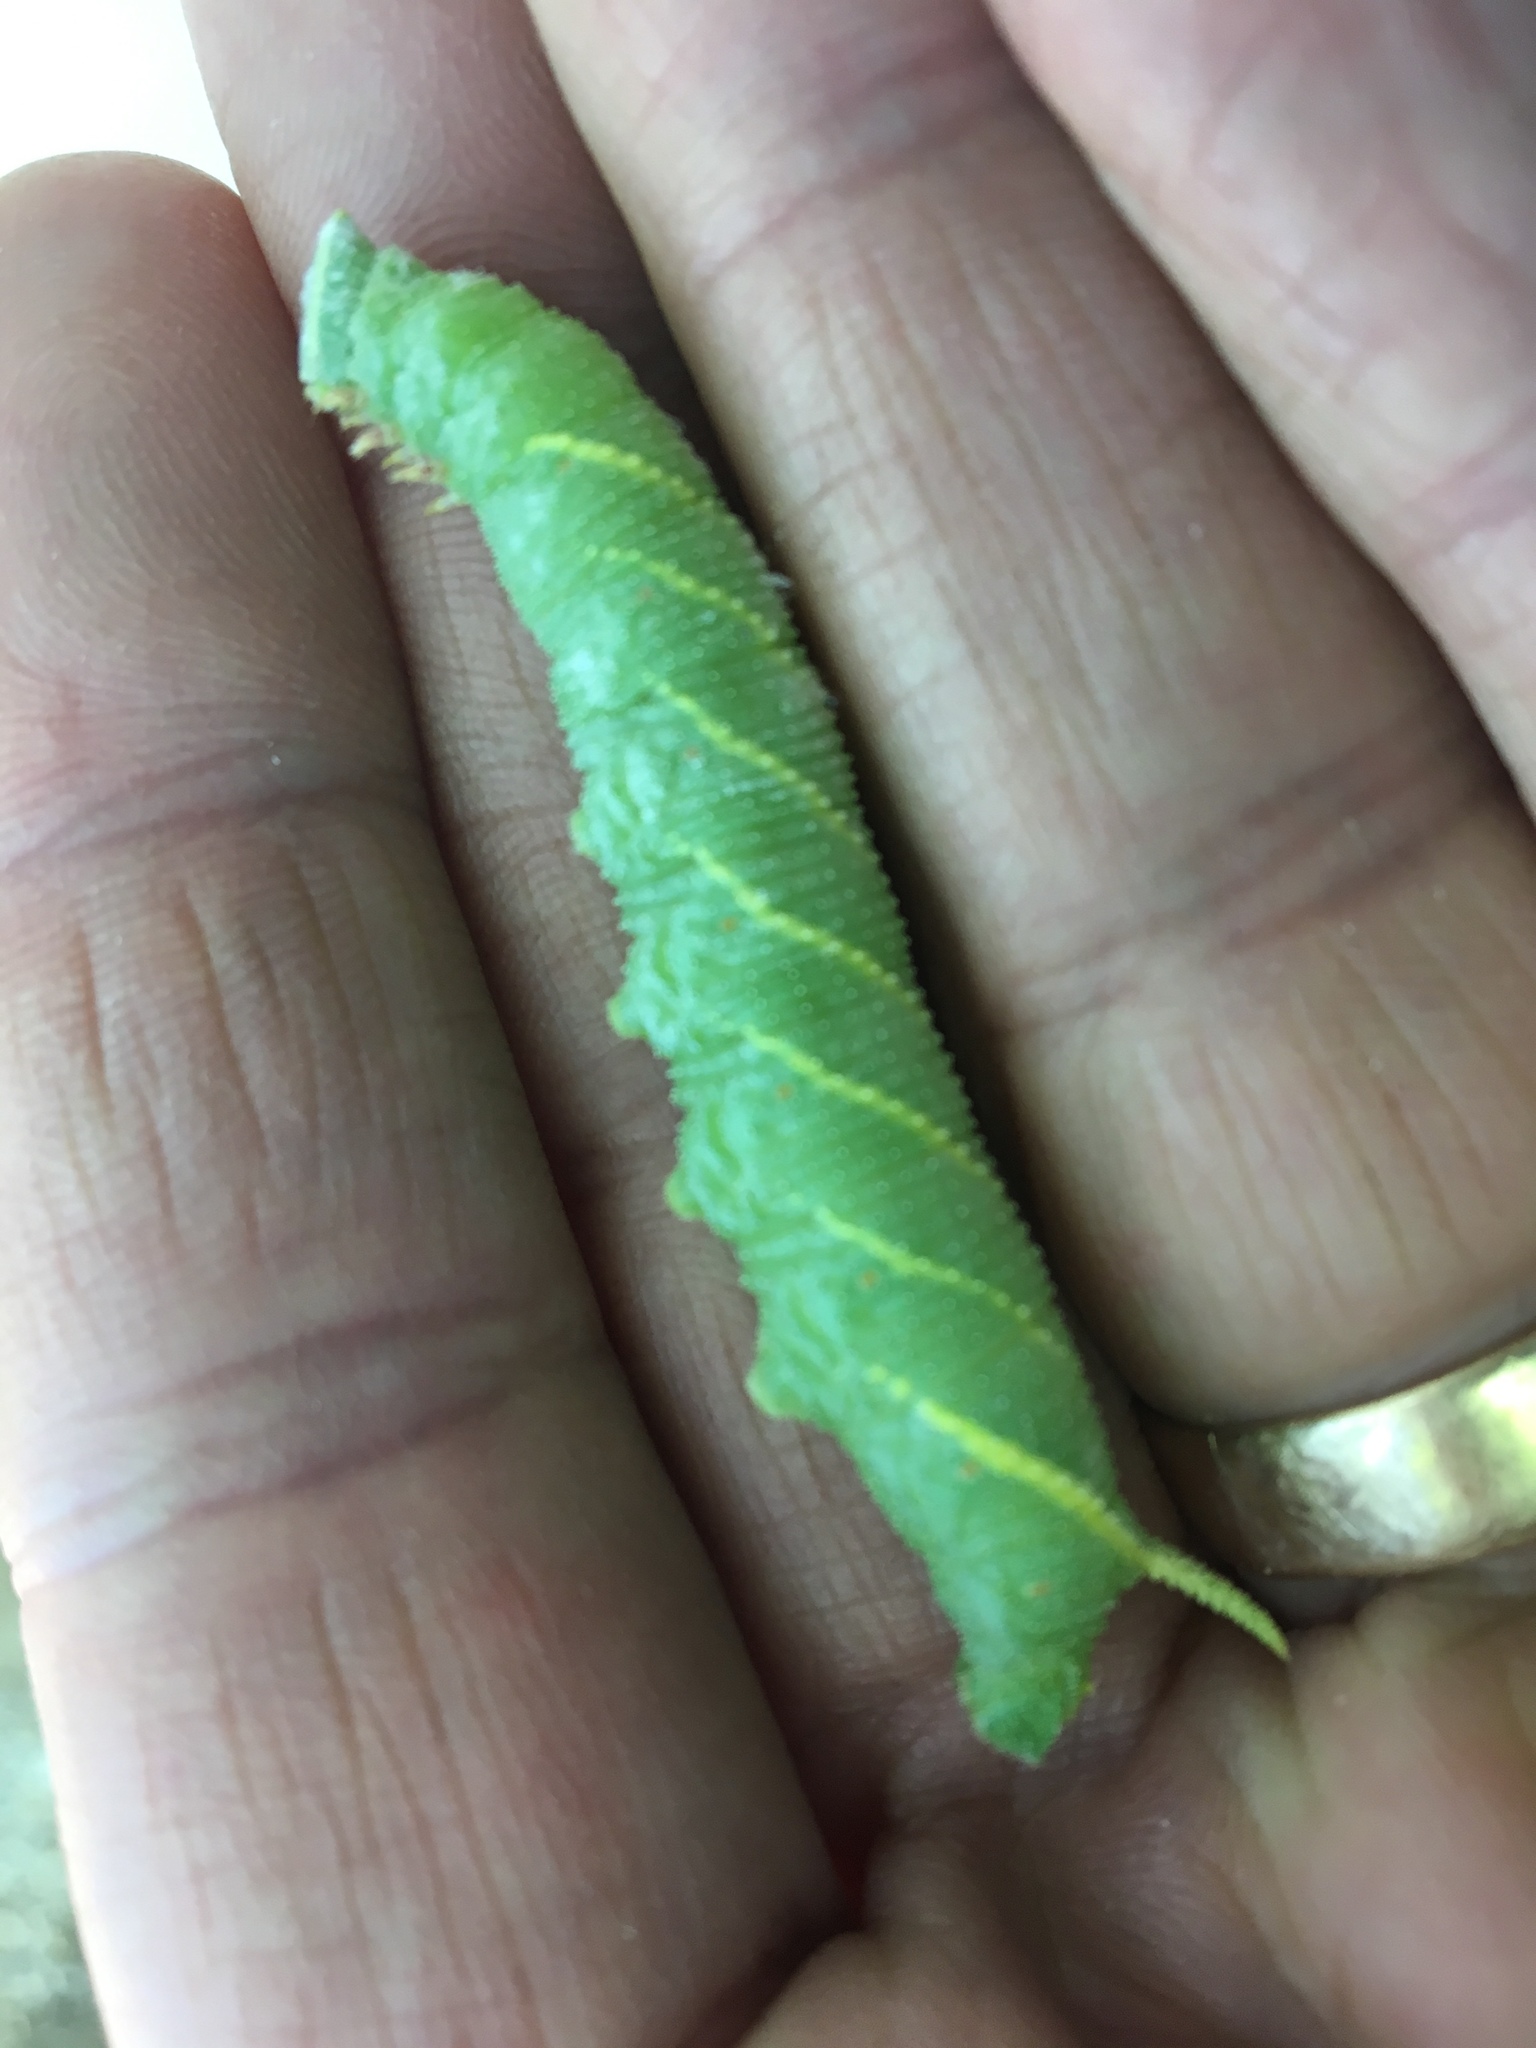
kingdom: Animalia
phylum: Arthropoda
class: Insecta
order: Lepidoptera
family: Sphingidae
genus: Amorpha
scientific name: Amorpha juglandis
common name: Walnut sphinx
